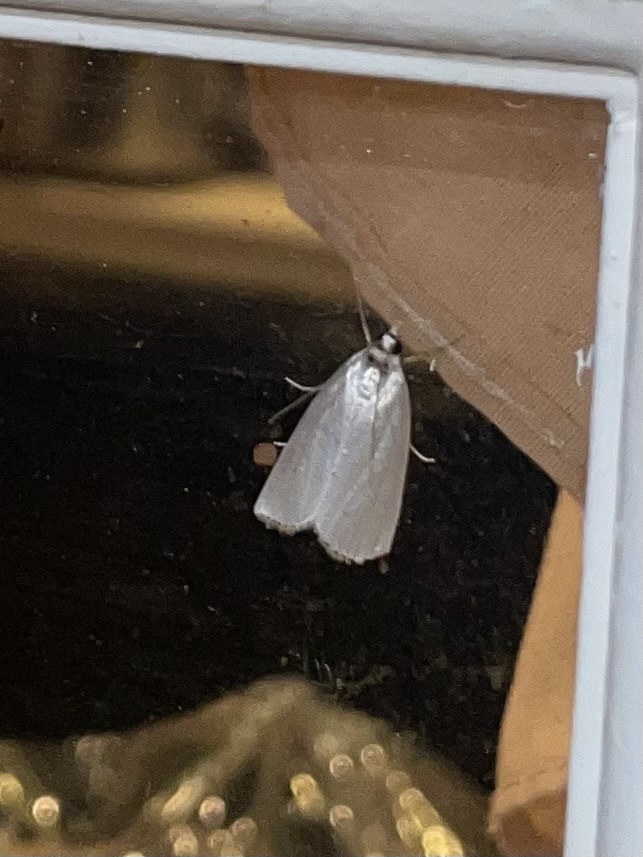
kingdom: Animalia
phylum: Arthropoda
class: Insecta
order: Lepidoptera
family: Crambidae
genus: Argyria
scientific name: Argyria nivalis
